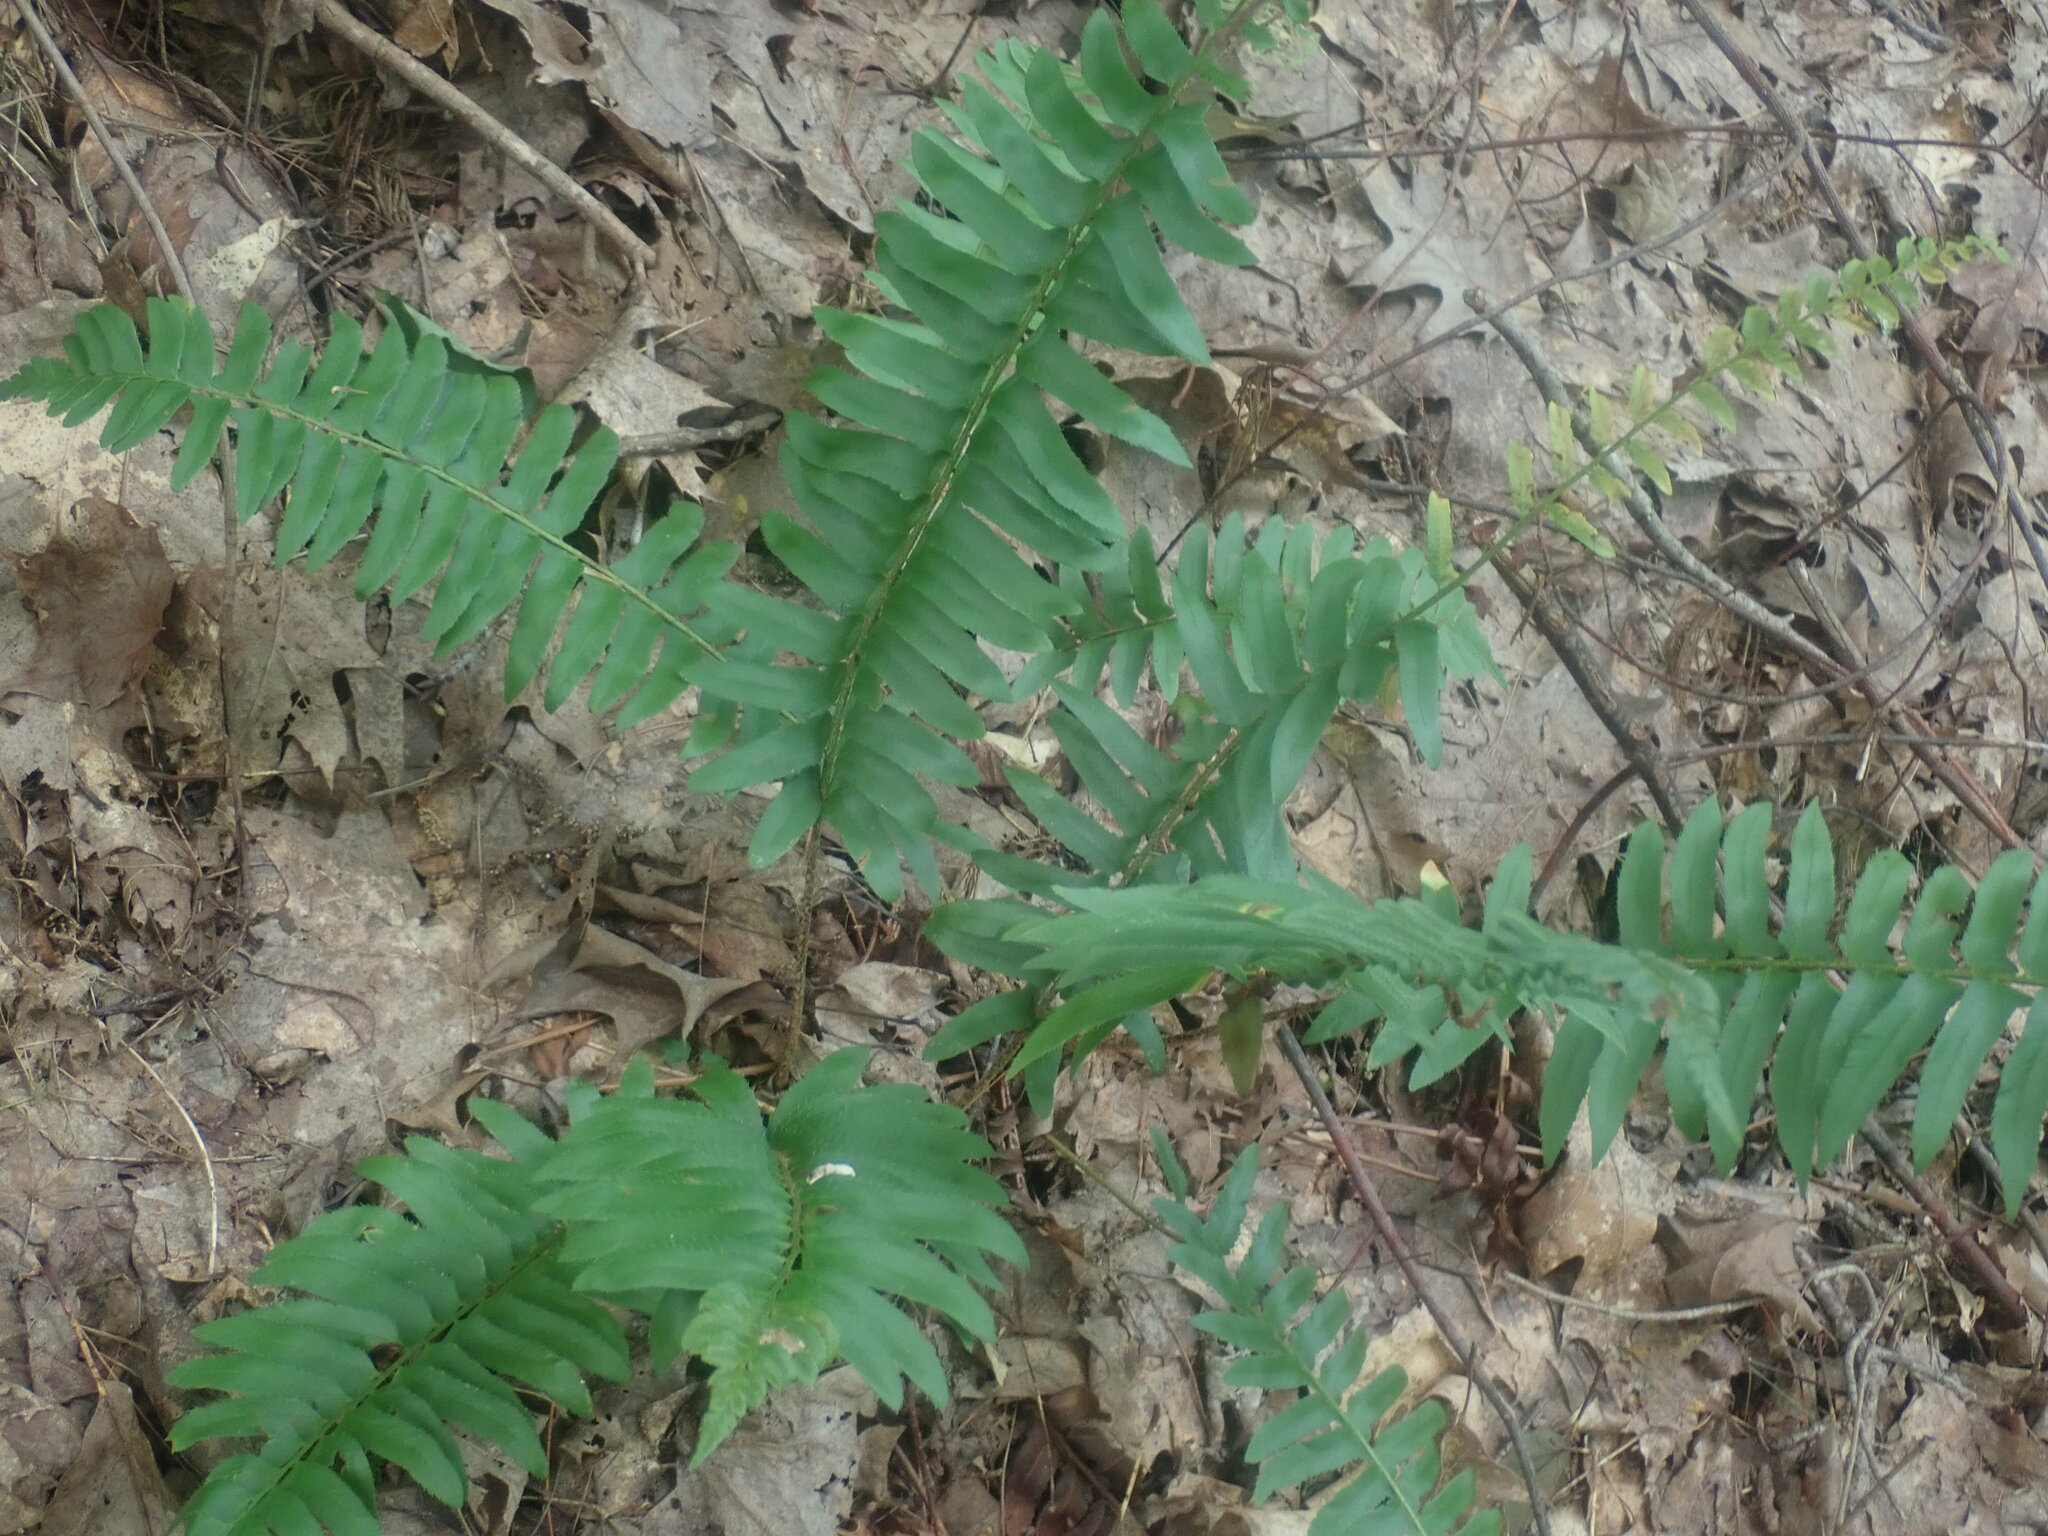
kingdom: Plantae
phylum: Tracheophyta
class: Polypodiopsida
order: Polypodiales
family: Dryopteridaceae
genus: Polystichum
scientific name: Polystichum acrostichoides
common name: Christmas fern
